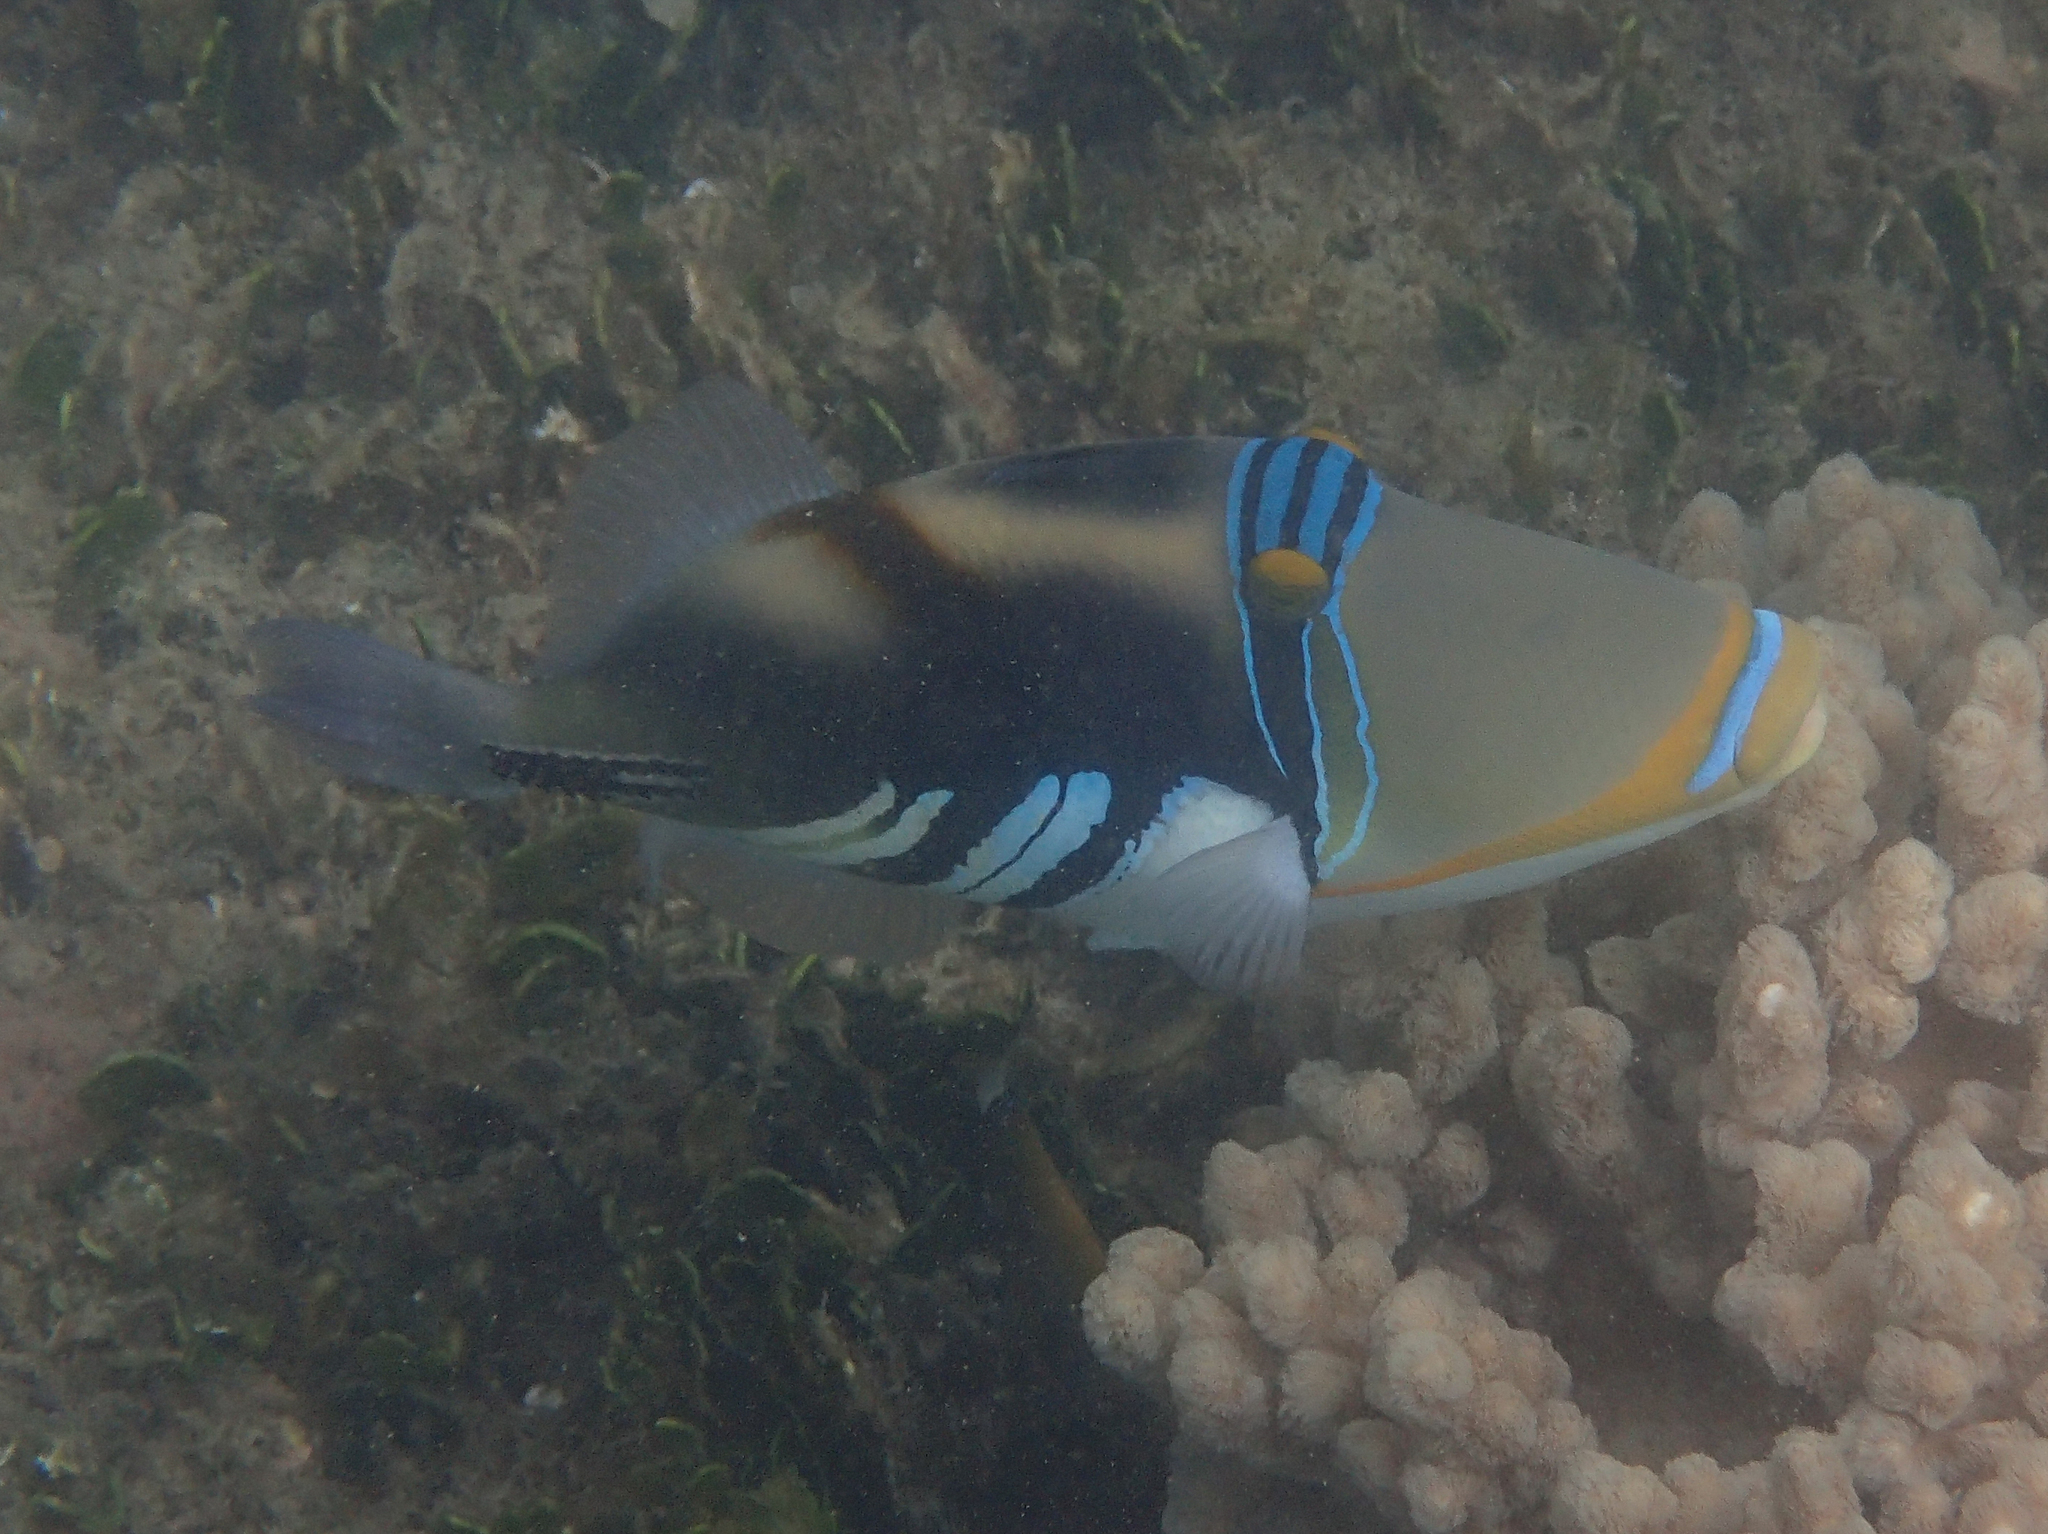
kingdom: Animalia
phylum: Chordata
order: Tetraodontiformes
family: Balistidae
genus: Rhinecanthus
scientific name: Rhinecanthus aculeatus
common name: White-banded triggerfish
